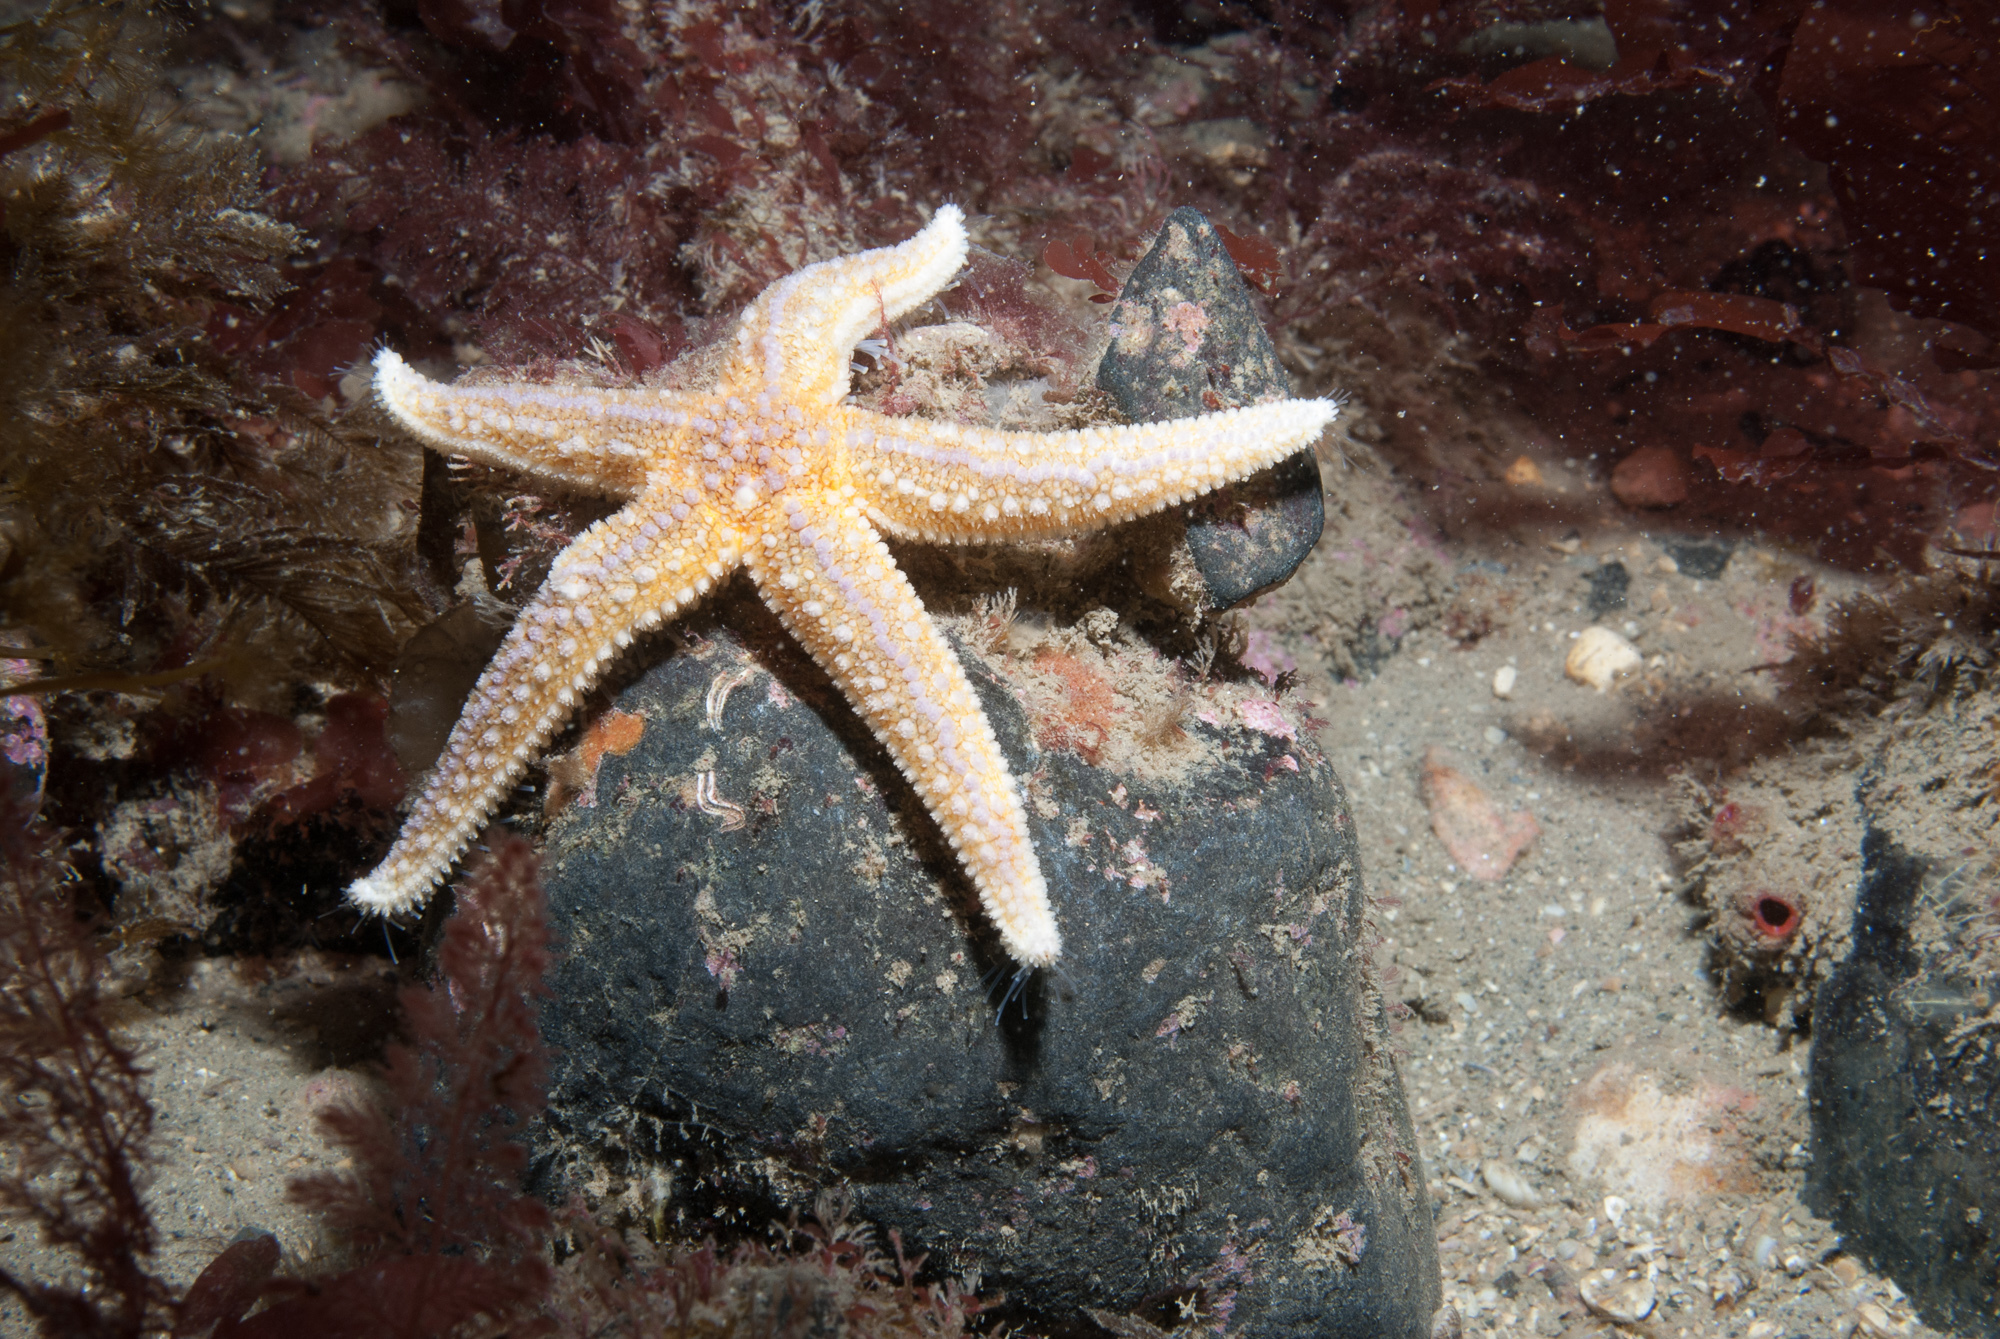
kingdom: Animalia
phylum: Echinodermata
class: Asteroidea
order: Forcipulatida
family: Asteriidae
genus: Asterias
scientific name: Asterias rubens
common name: Common starfish
